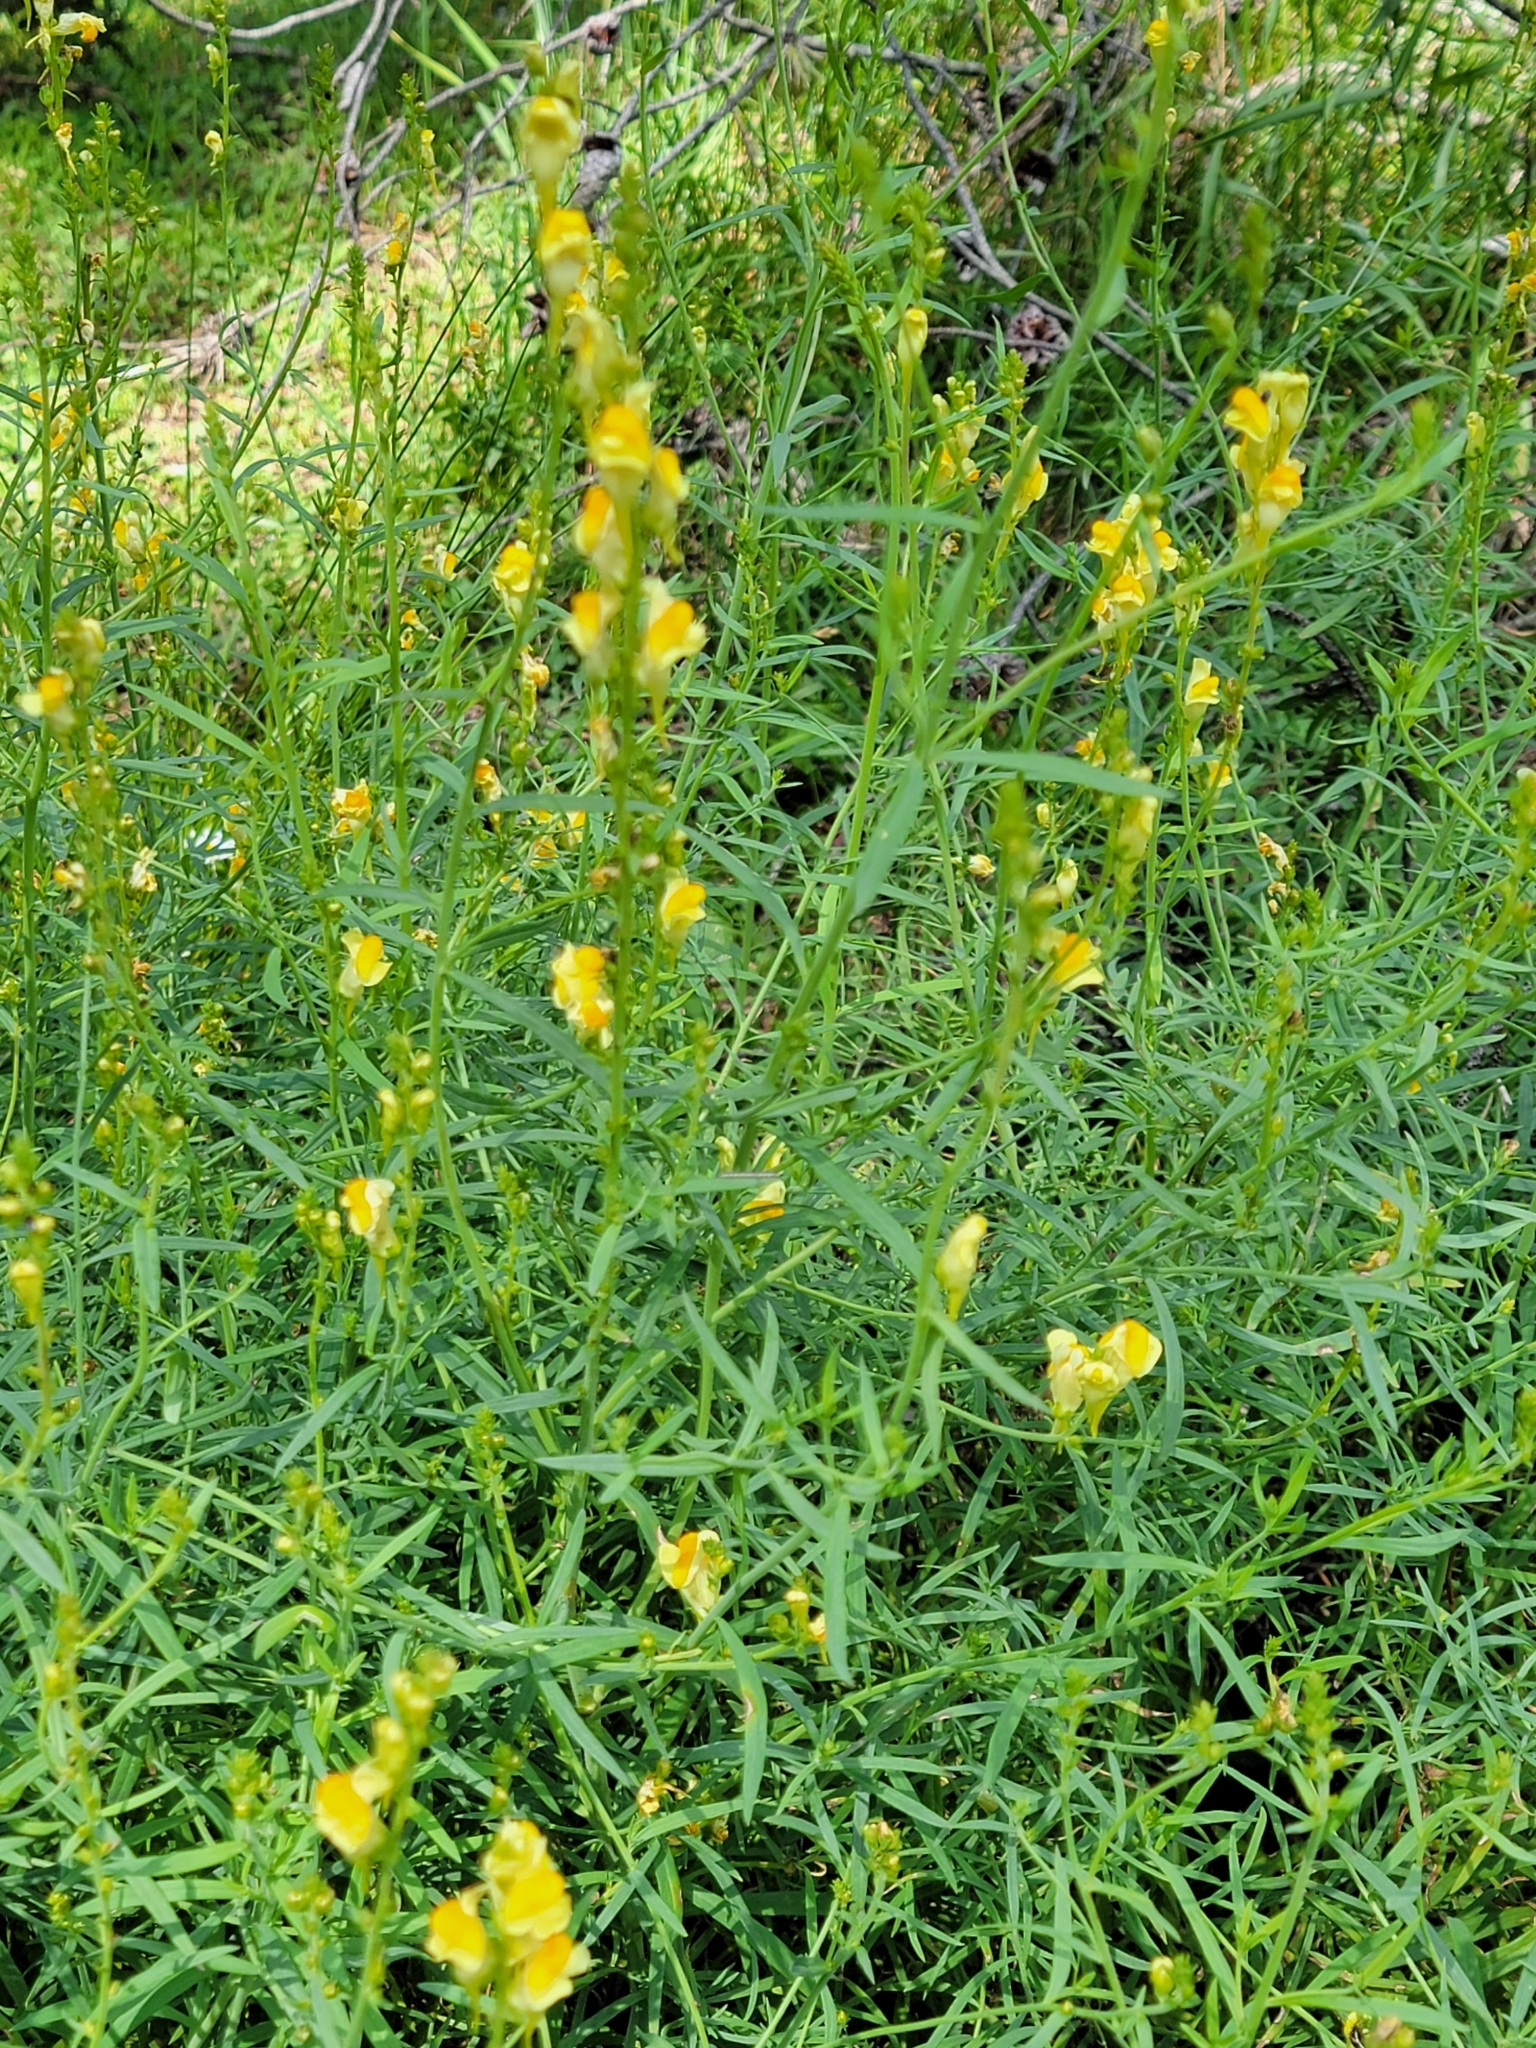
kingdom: Plantae
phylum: Tracheophyta
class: Magnoliopsida
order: Lamiales
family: Plantaginaceae
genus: Linaria
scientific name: Linaria vulgaris
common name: Butter and eggs
